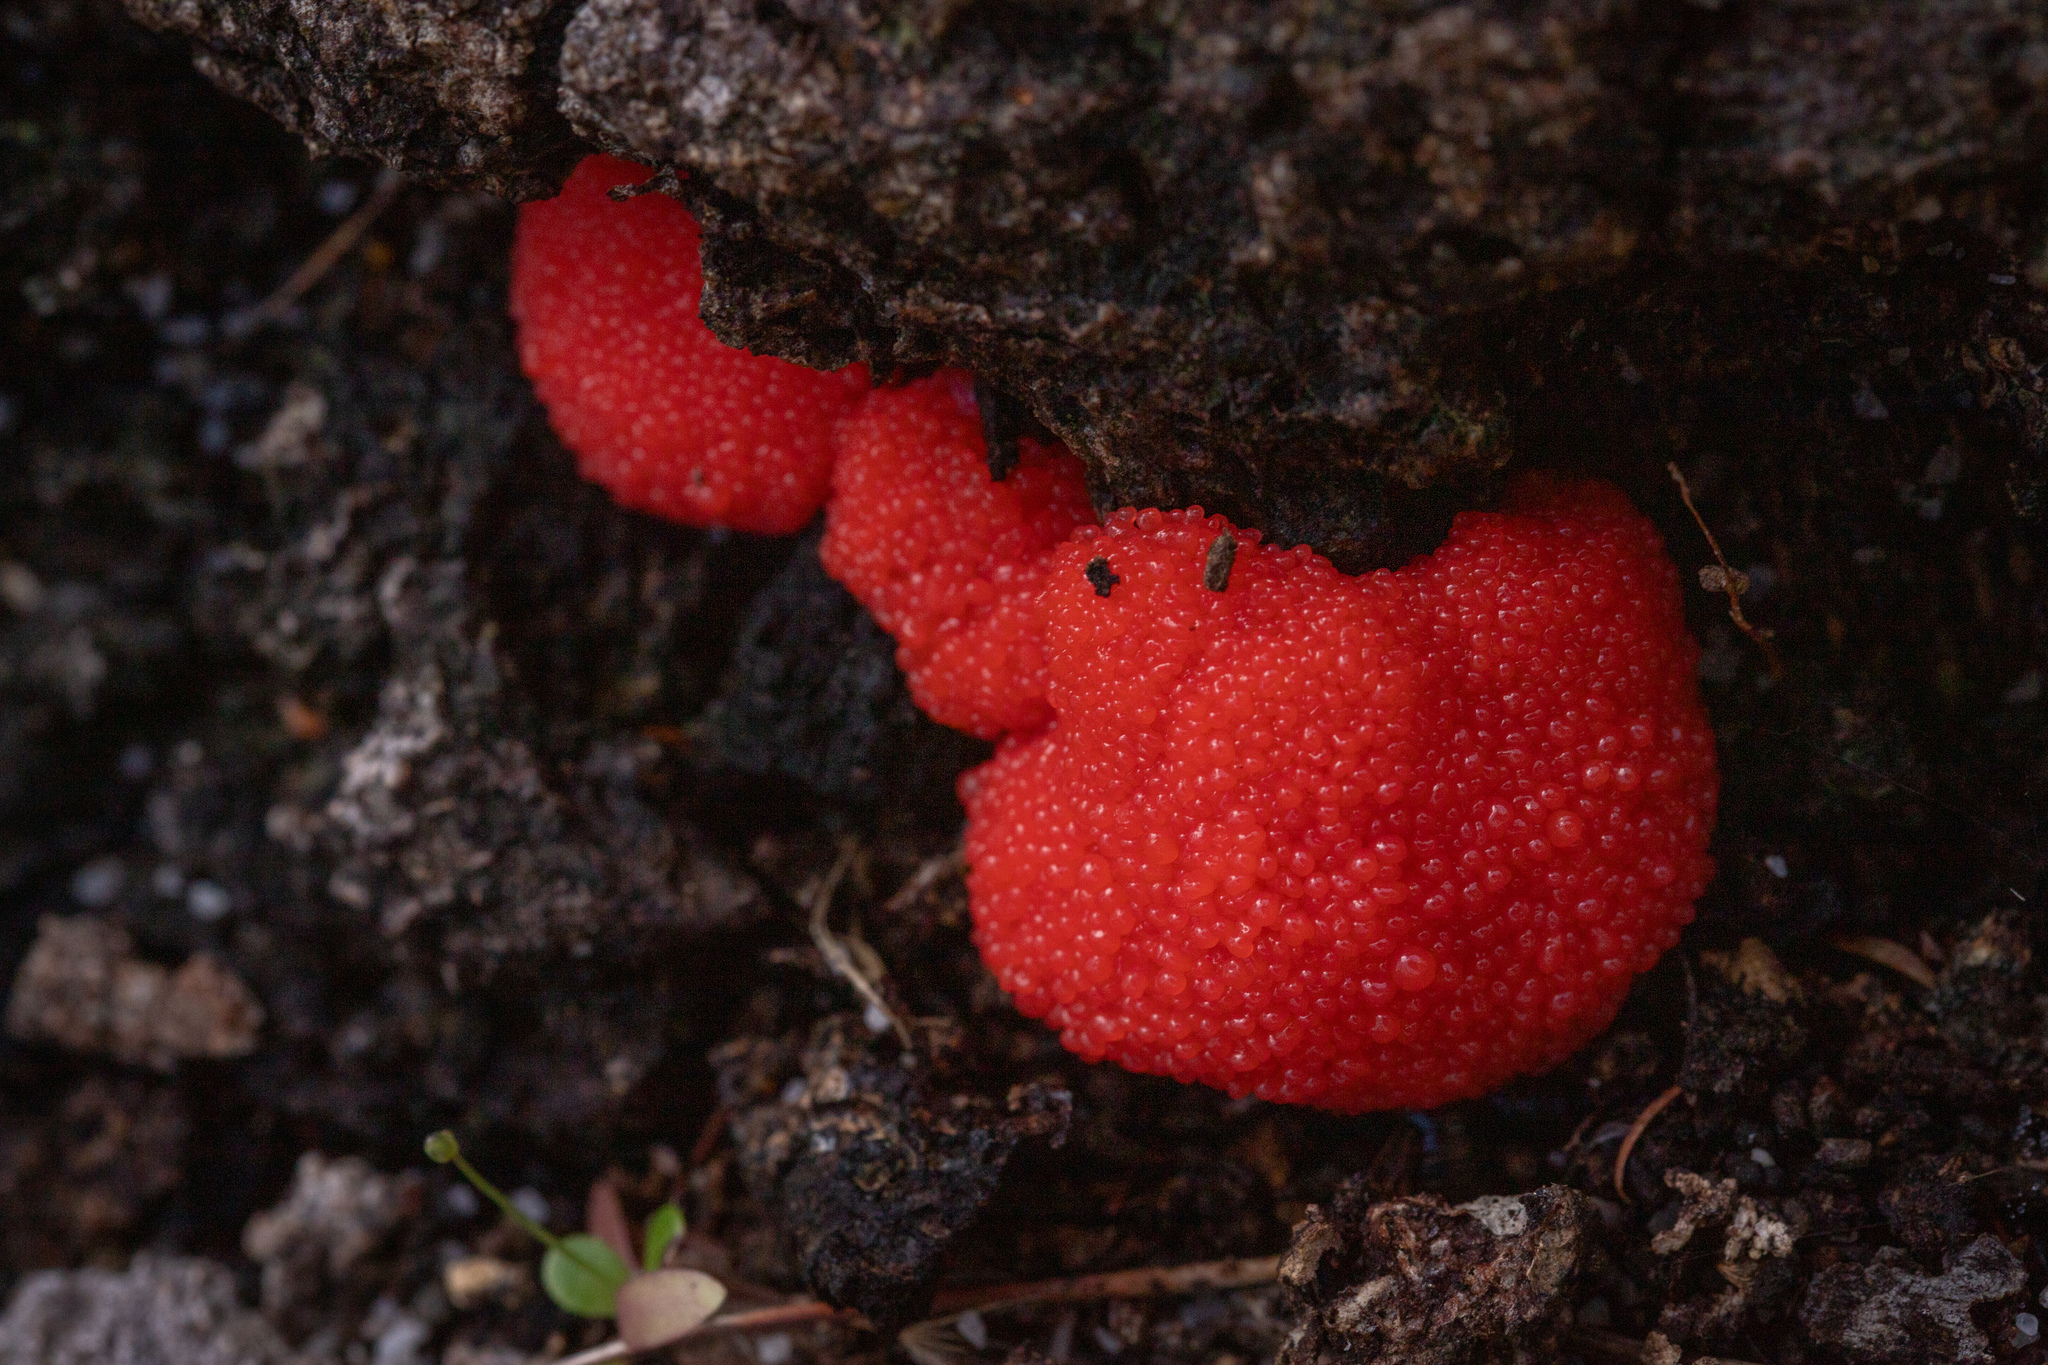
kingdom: Protozoa
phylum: Mycetozoa
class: Myxomycetes
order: Cribrariales
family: Tubiferaceae
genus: Tubifera
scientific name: Tubifera ferruginosa
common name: Red raspberry slime mold
